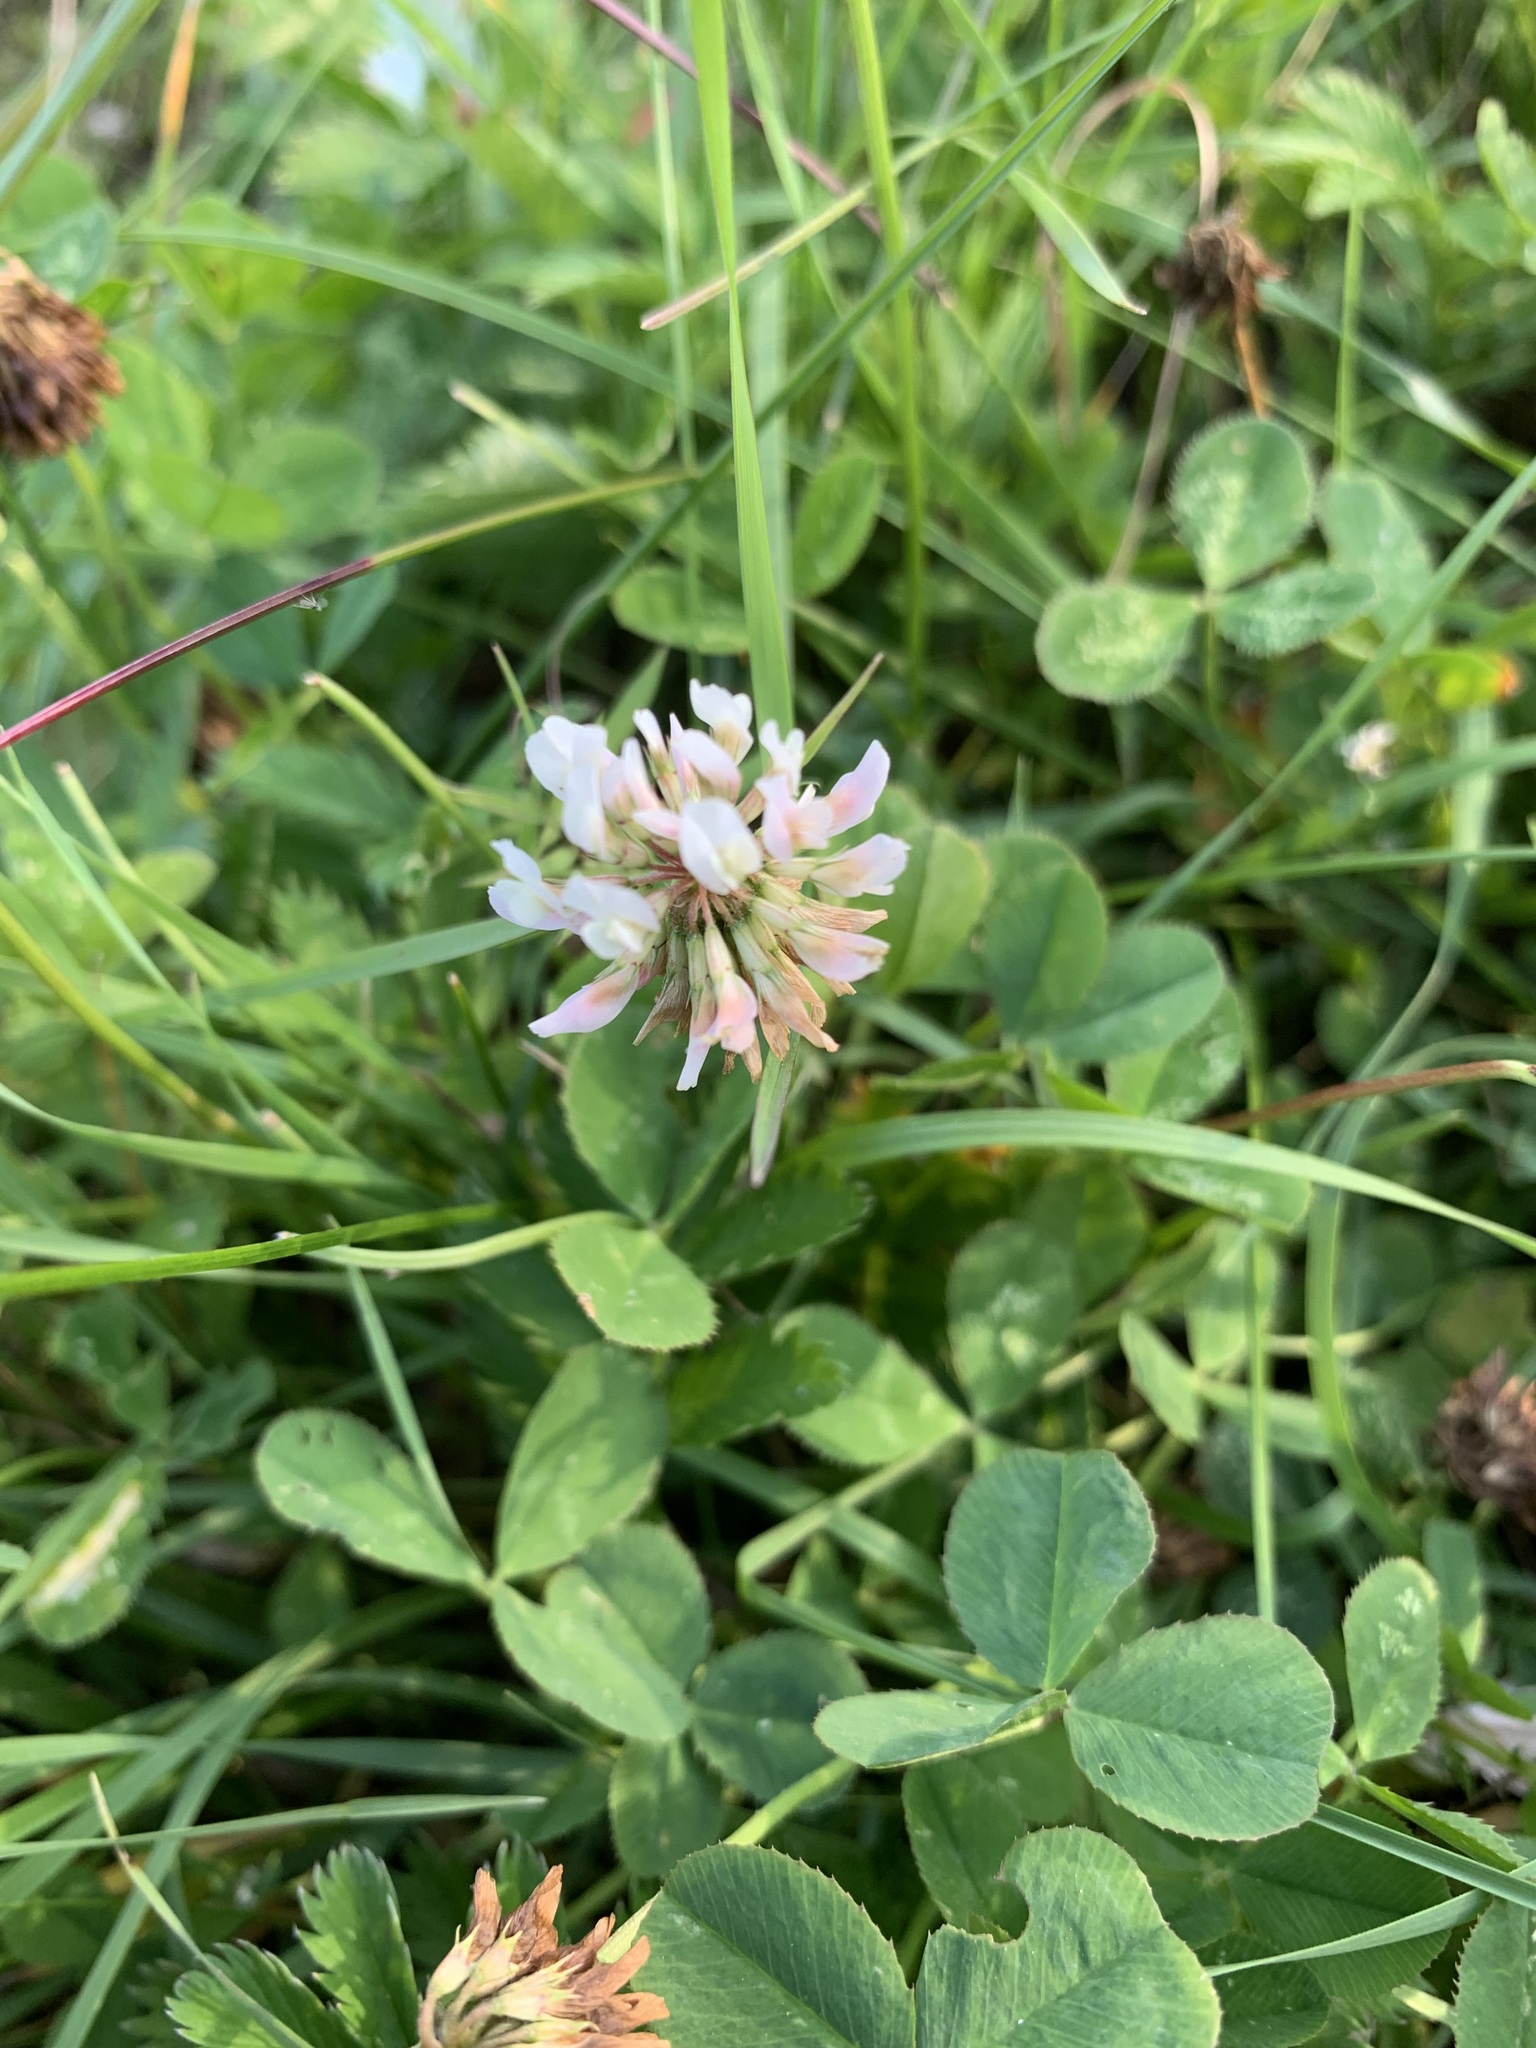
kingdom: Plantae
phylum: Tracheophyta
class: Magnoliopsida
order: Fabales
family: Fabaceae
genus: Trifolium
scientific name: Trifolium repens
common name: White clover
